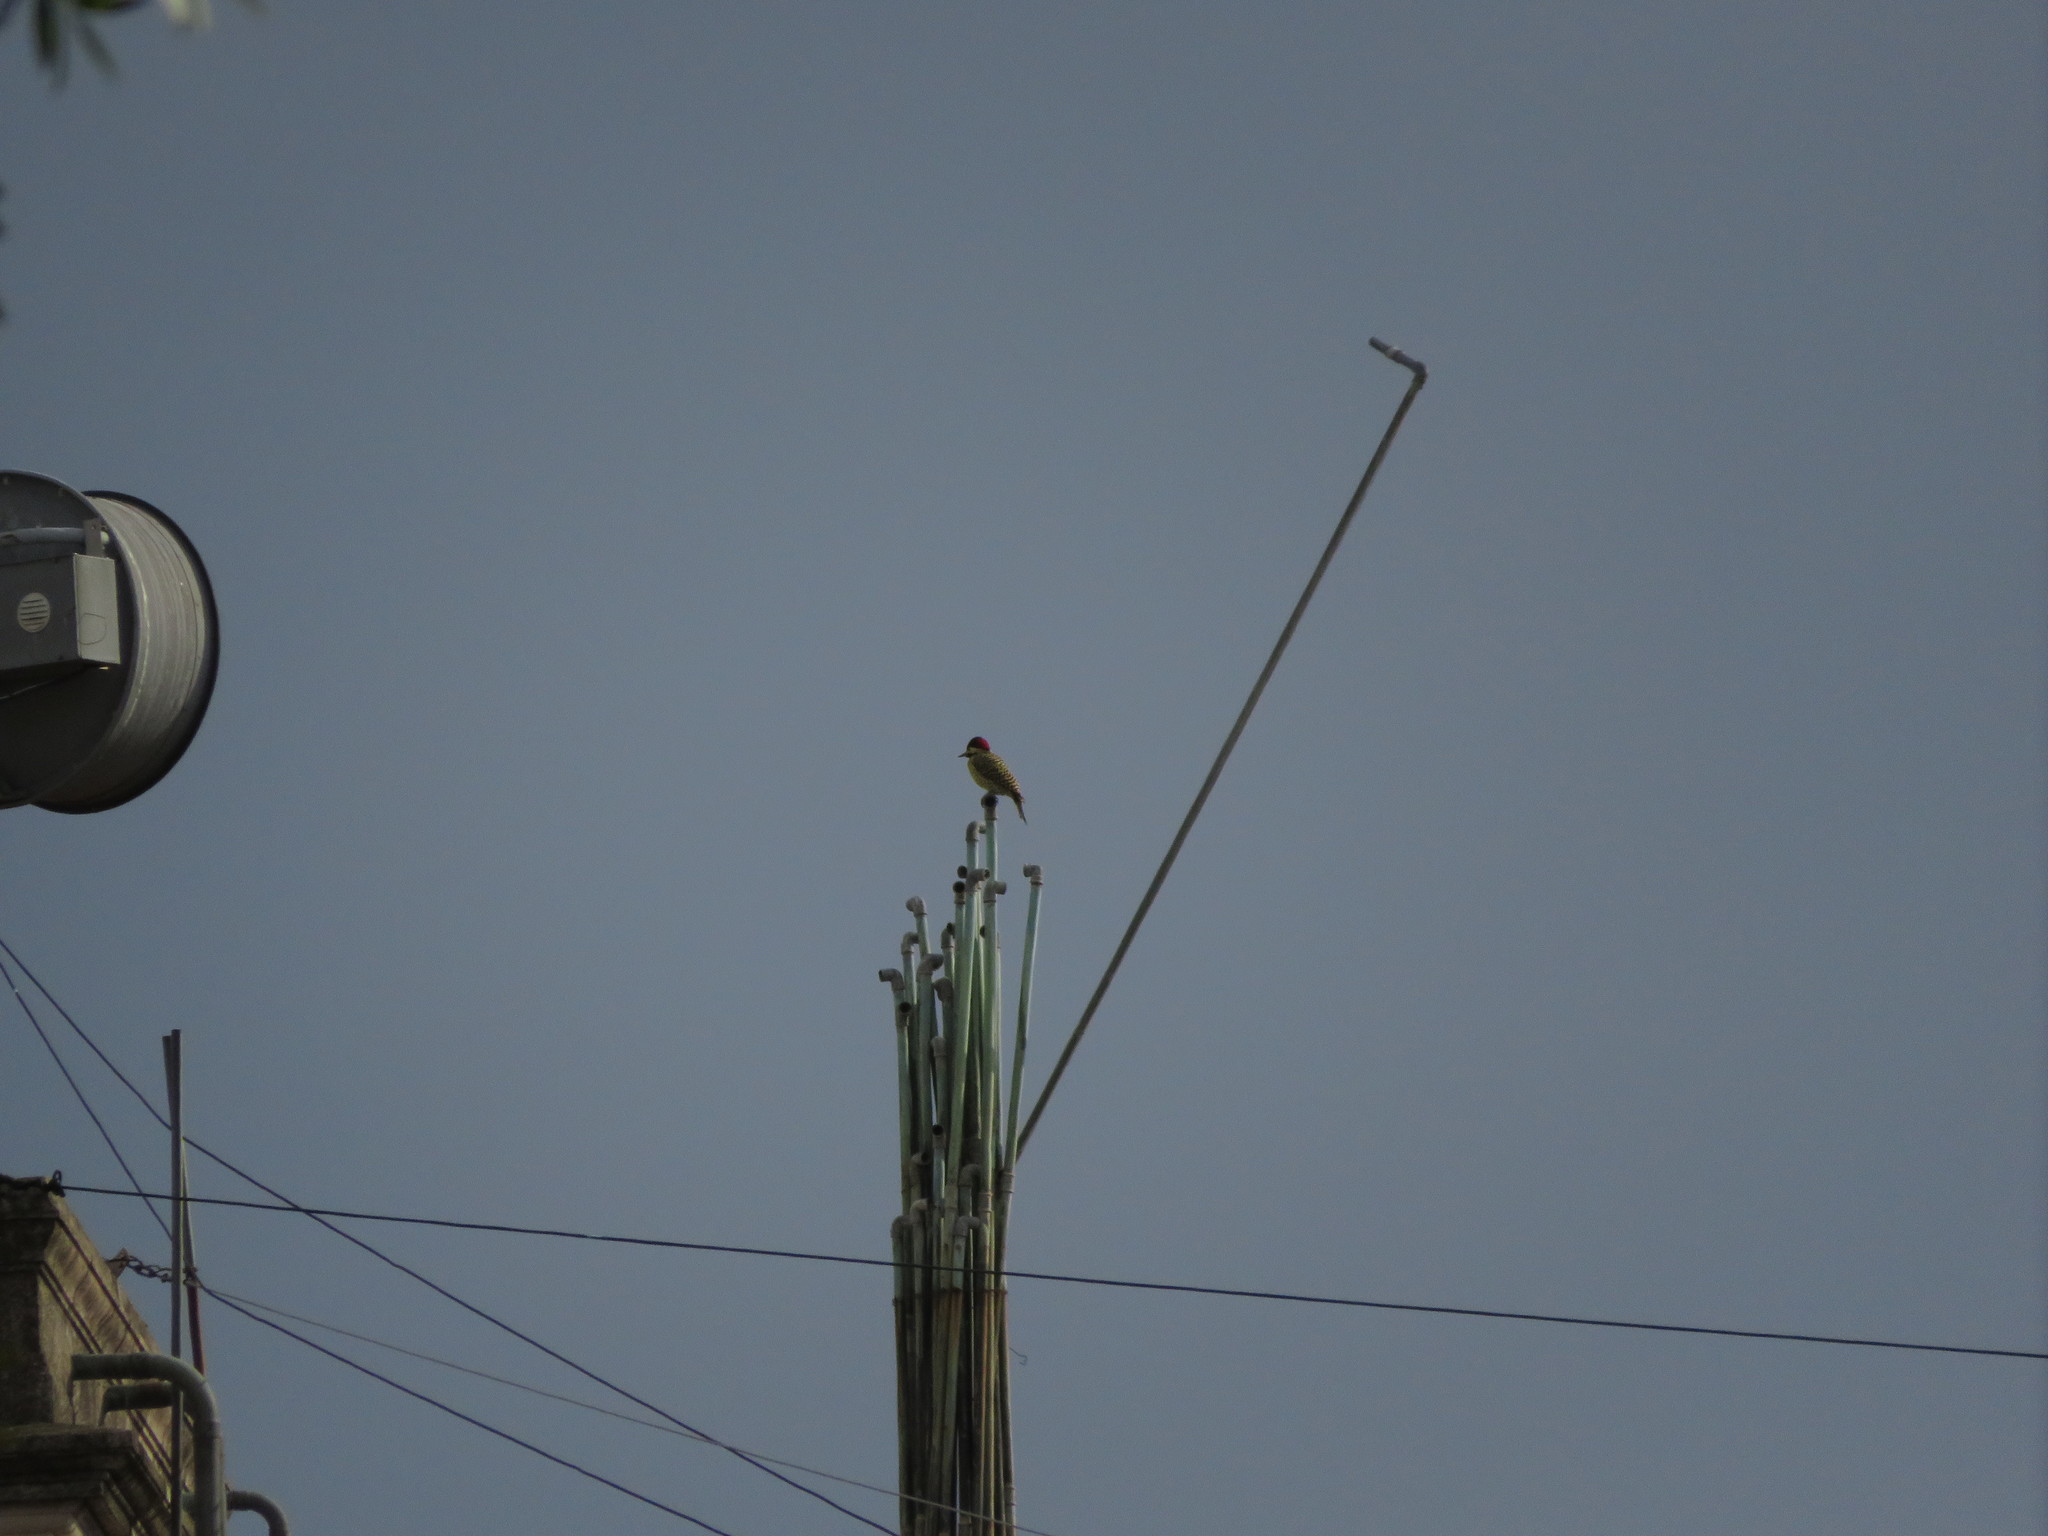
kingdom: Animalia
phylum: Chordata
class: Aves
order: Piciformes
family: Picidae
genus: Colaptes
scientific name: Colaptes melanochloros
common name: Green-barred woodpecker
